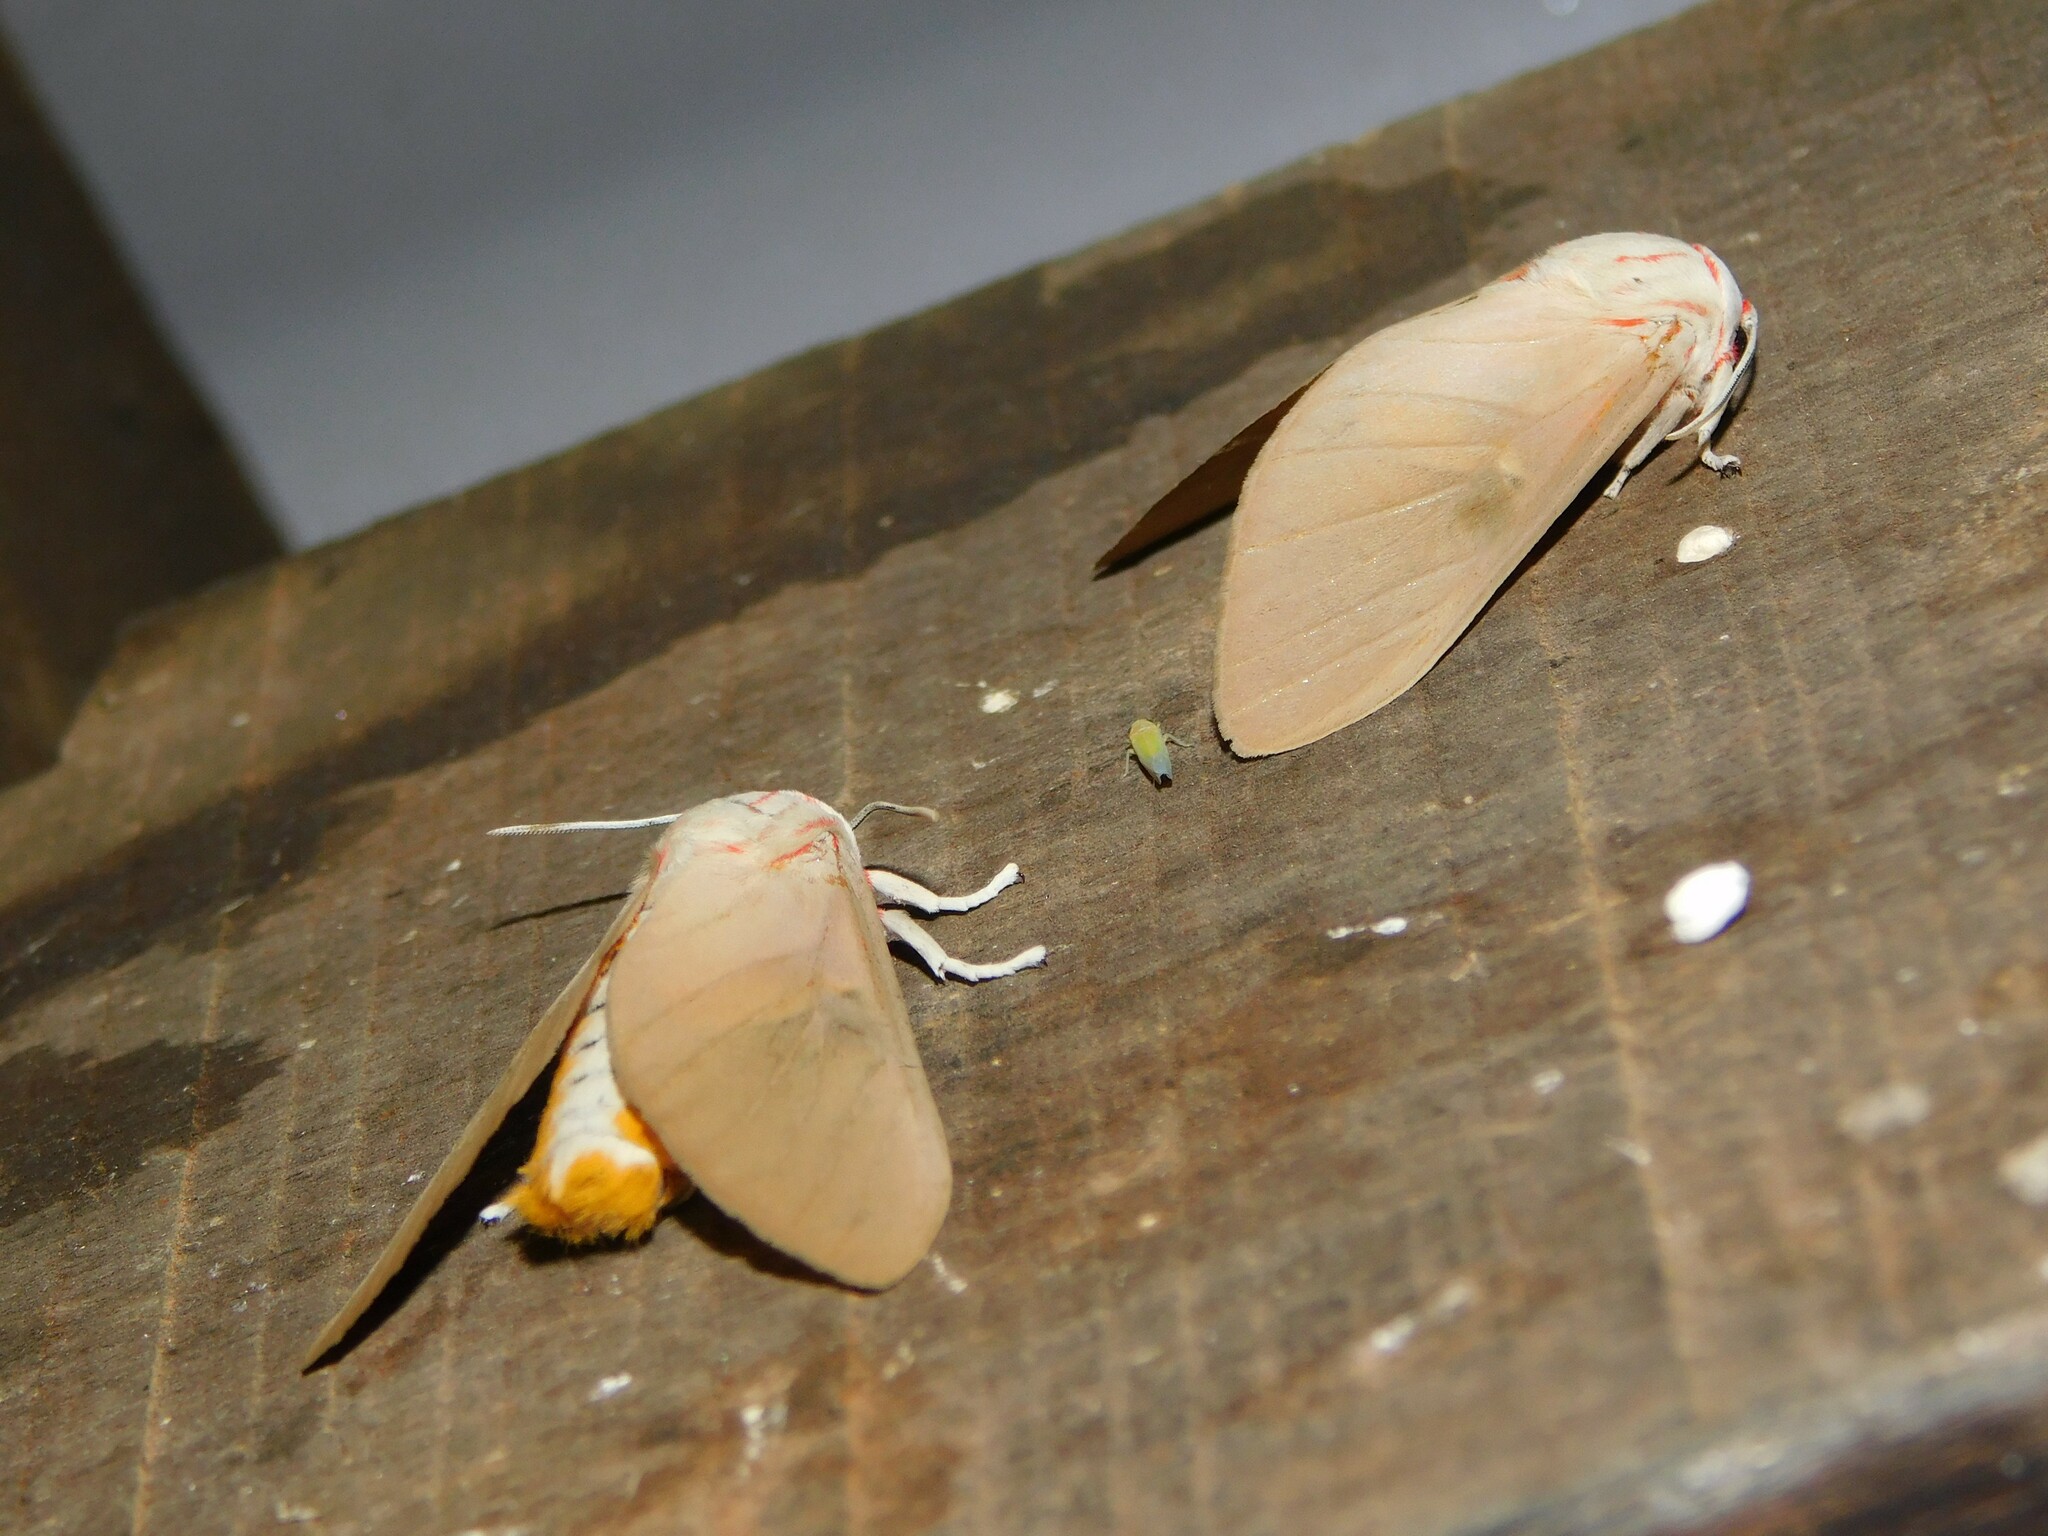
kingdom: Animalia
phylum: Arthropoda
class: Insecta
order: Lepidoptera
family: Erebidae
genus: Balacra
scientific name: Balacra herona
